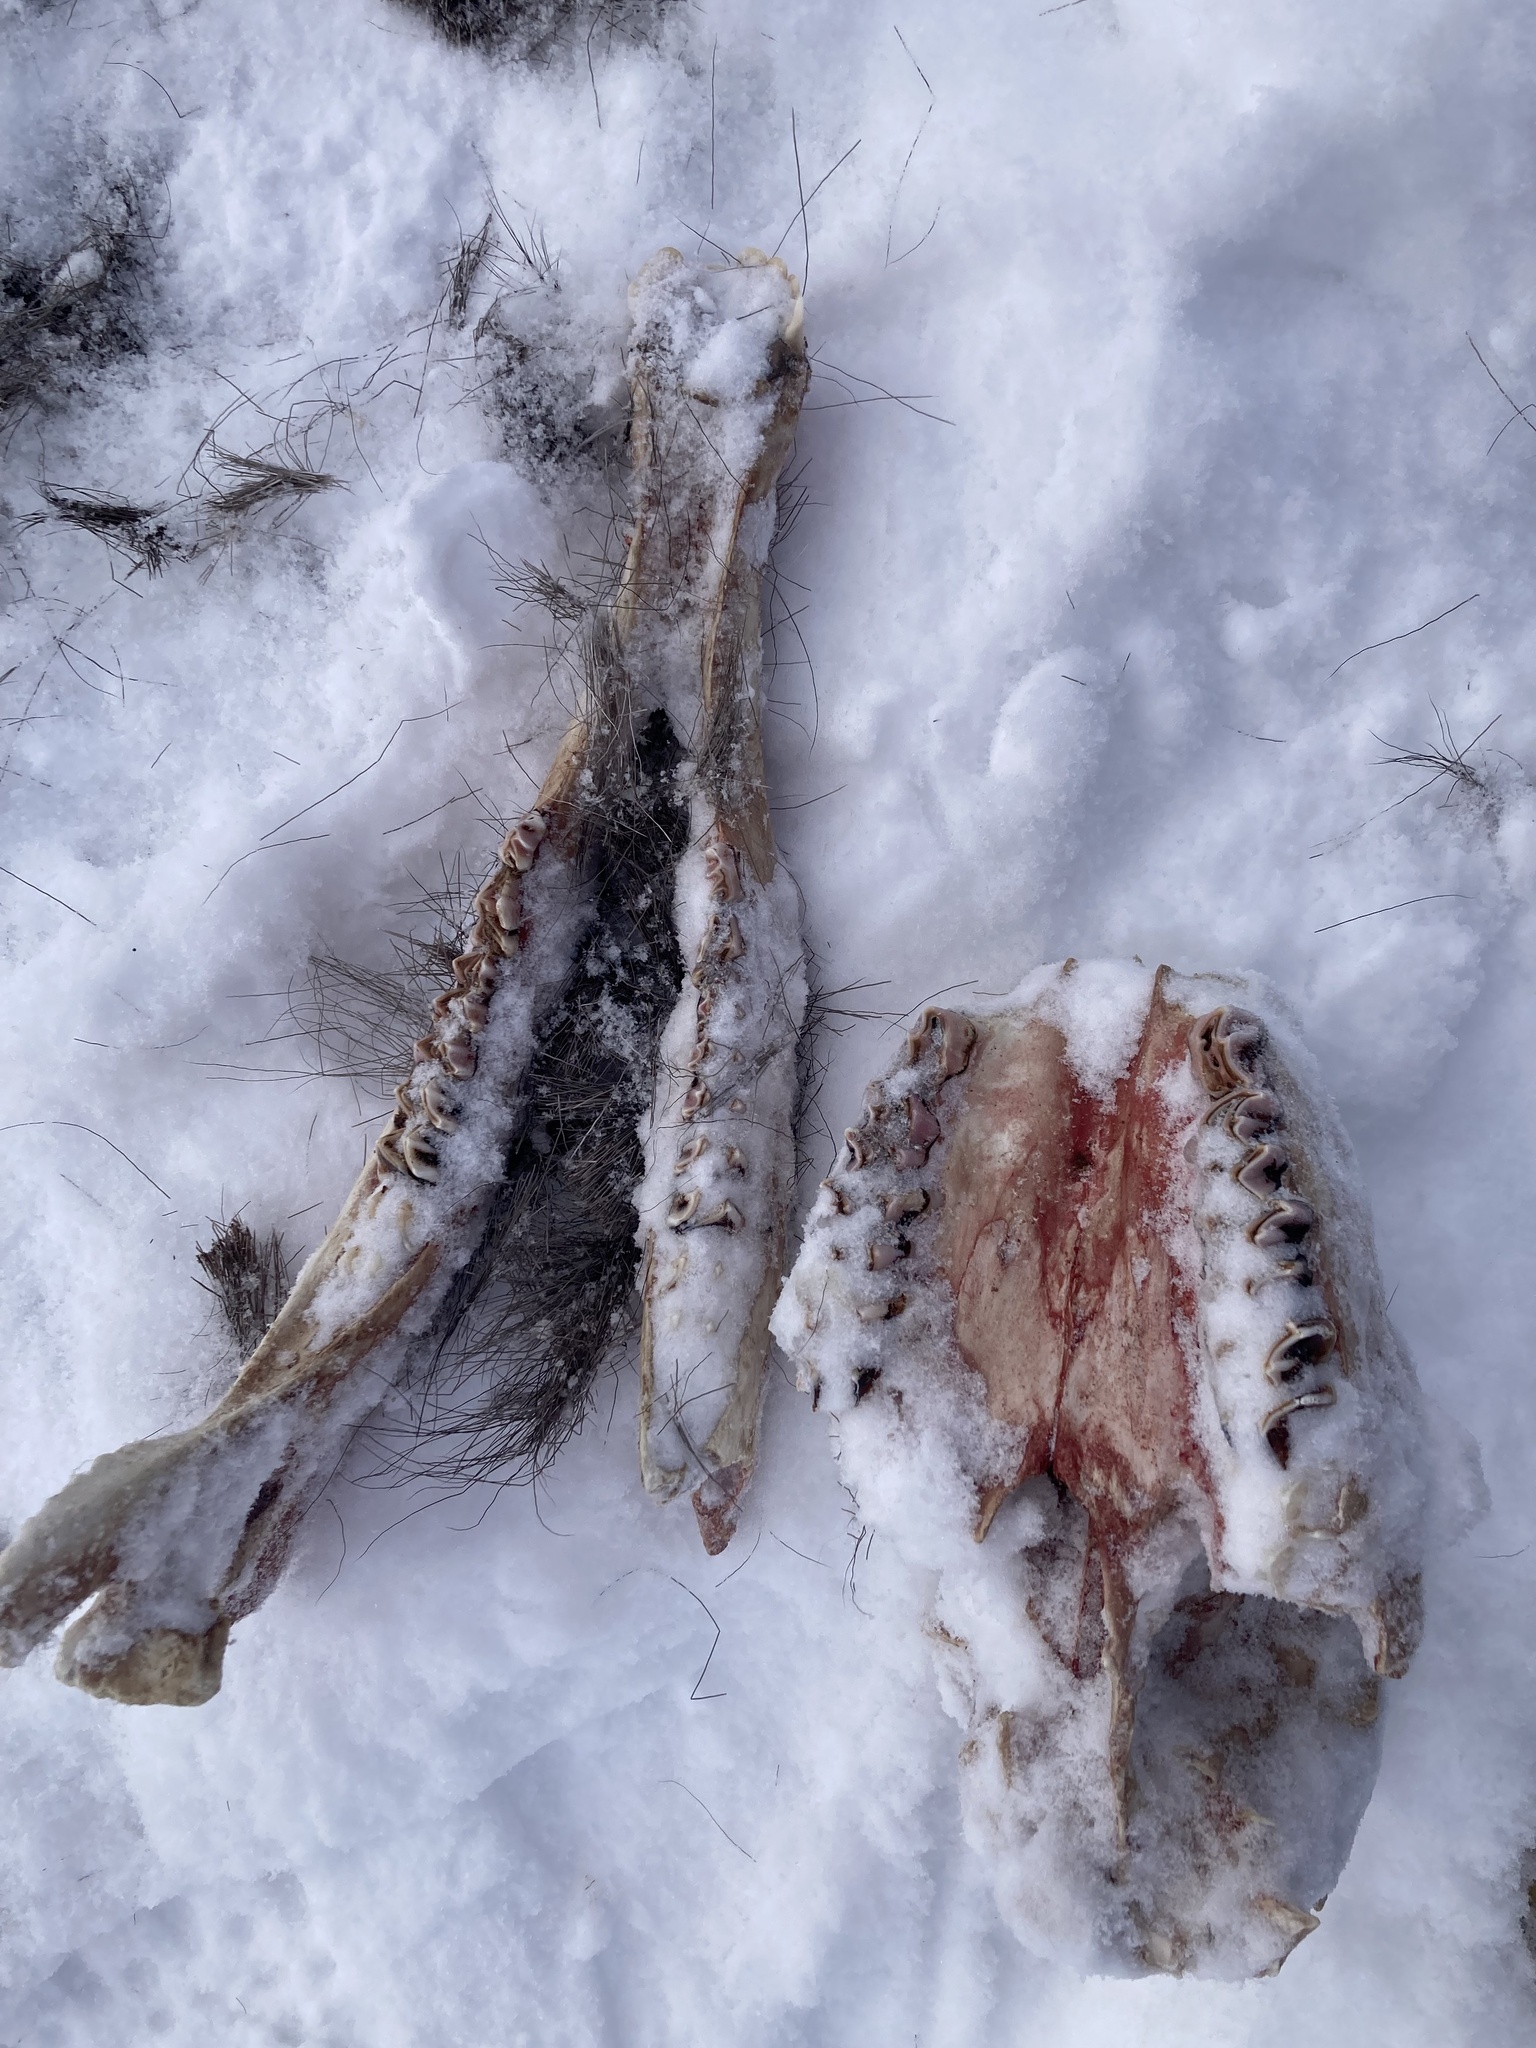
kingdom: Animalia
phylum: Chordata
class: Mammalia
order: Artiodactyla
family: Cervidae
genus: Alces
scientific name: Alces alces
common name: Moose
